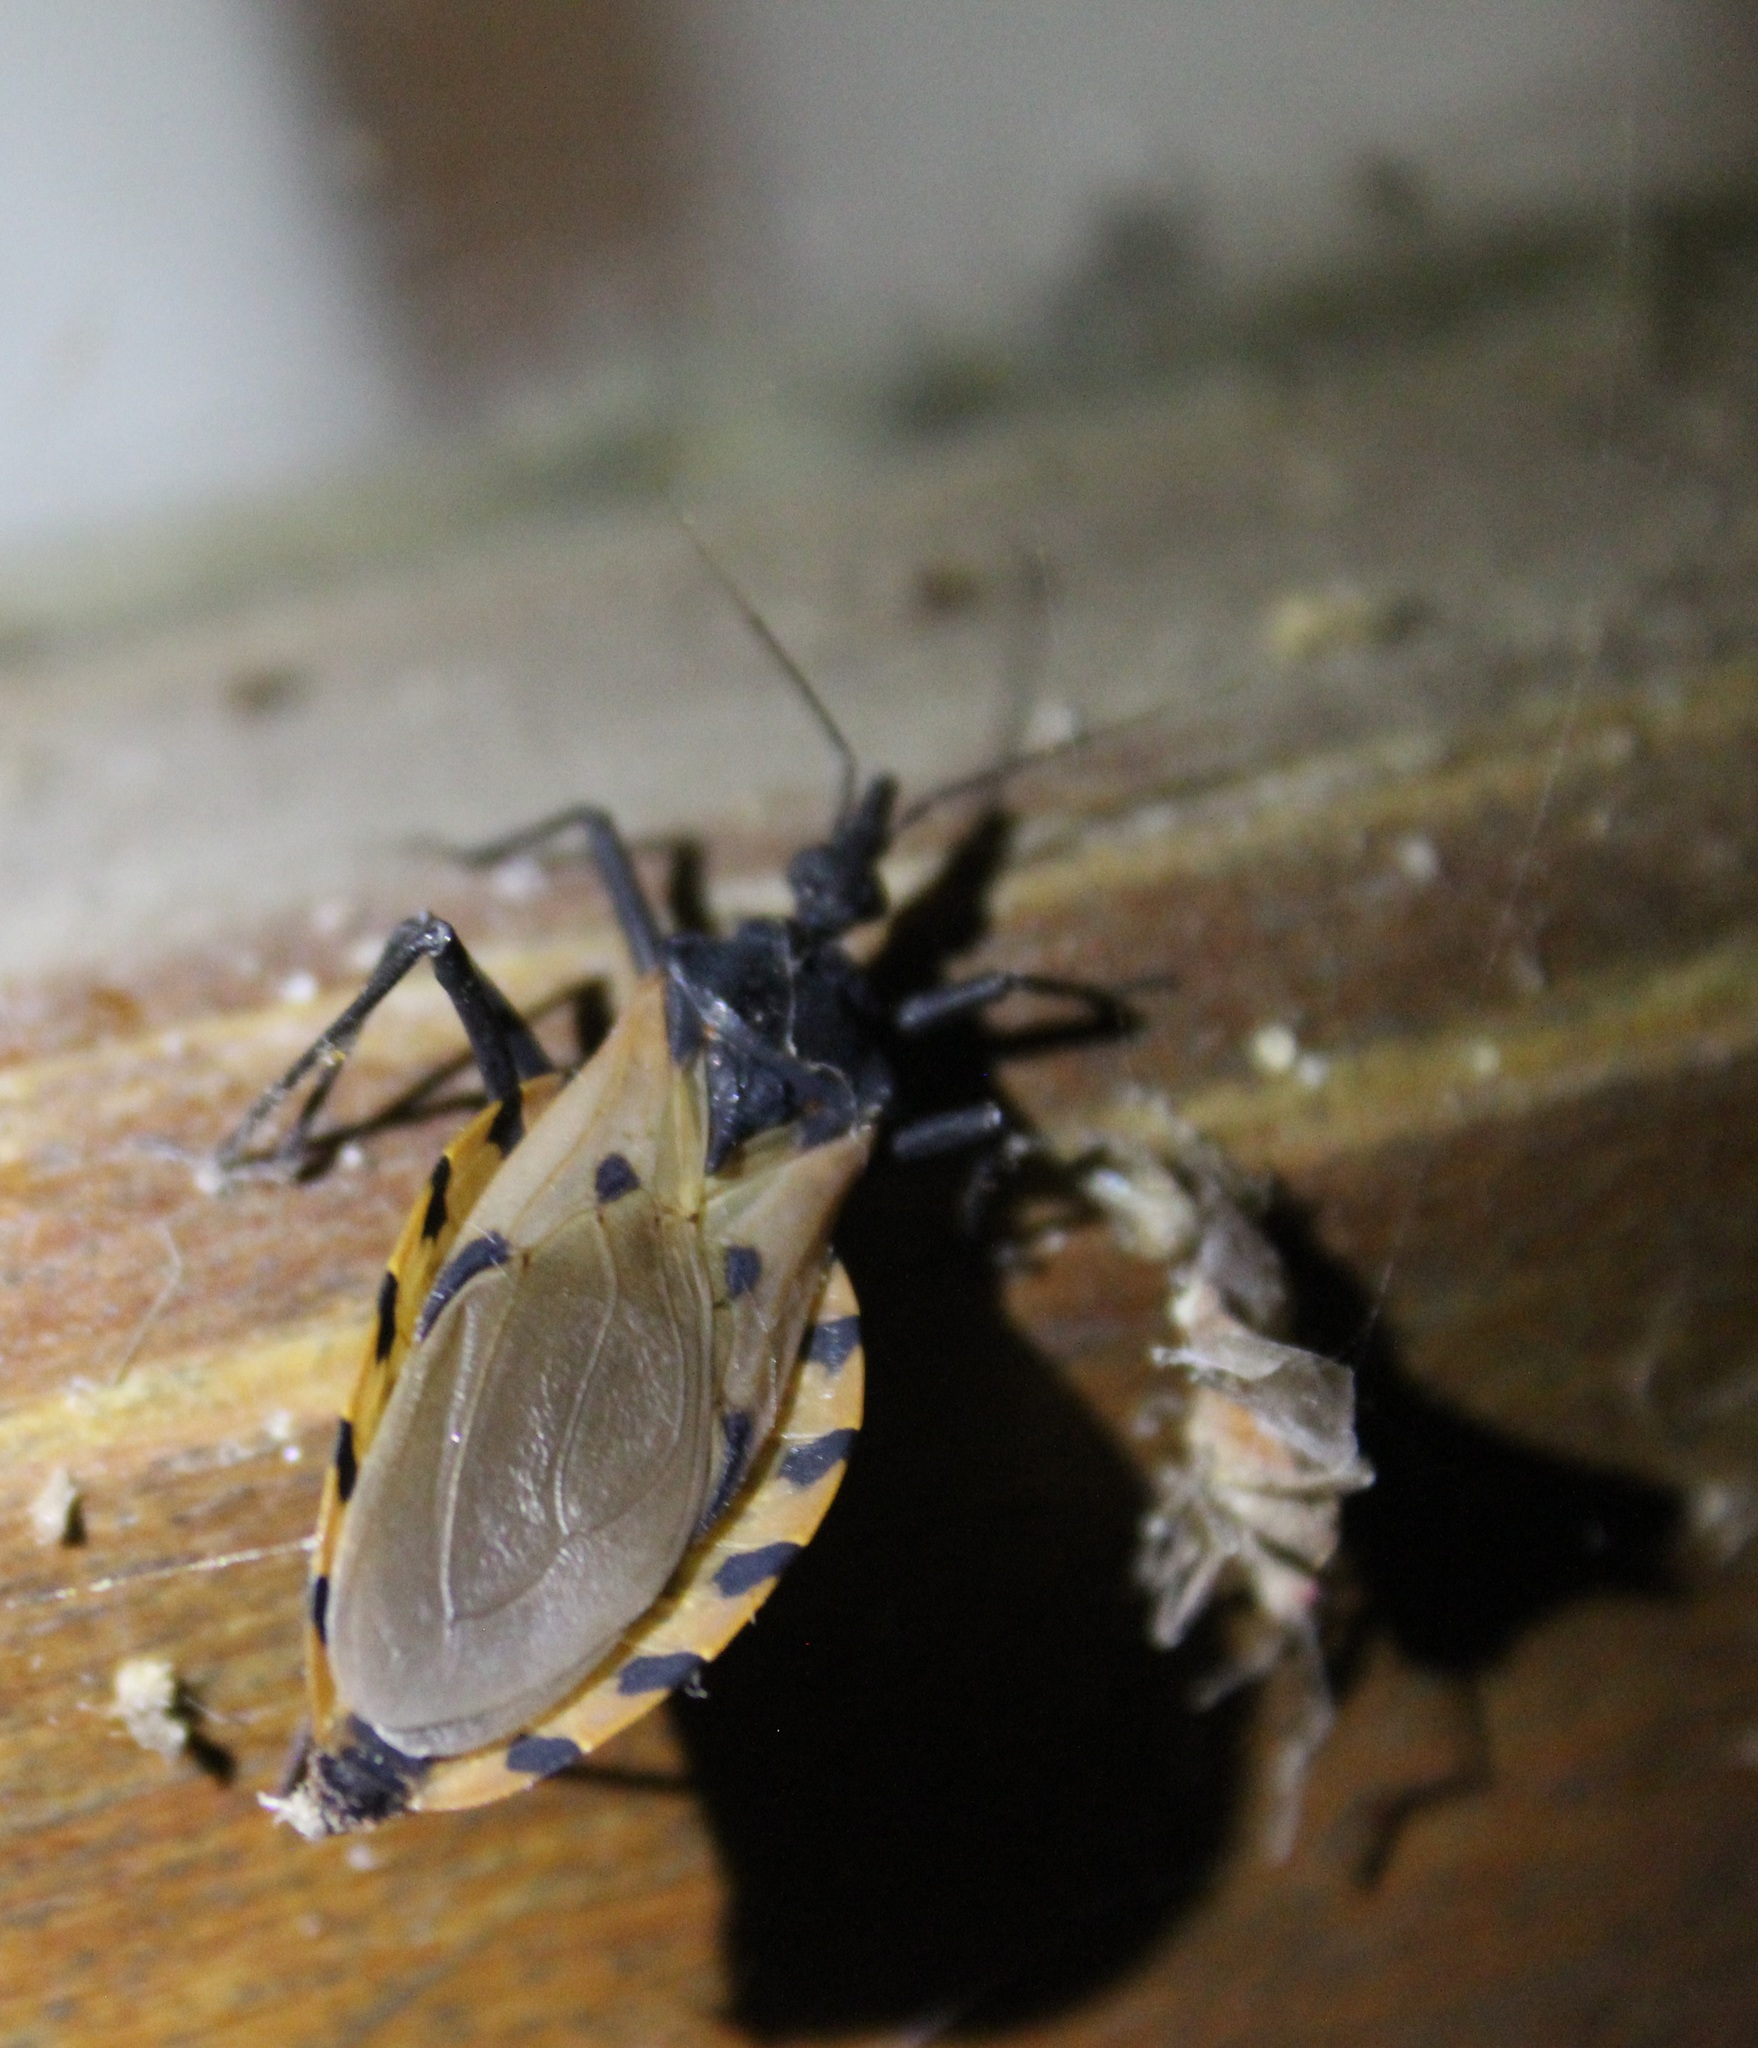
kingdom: Animalia
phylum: Arthropoda
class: Insecta
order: Hemiptera
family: Reduviidae
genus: Meccus
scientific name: Meccus dimidiatus
